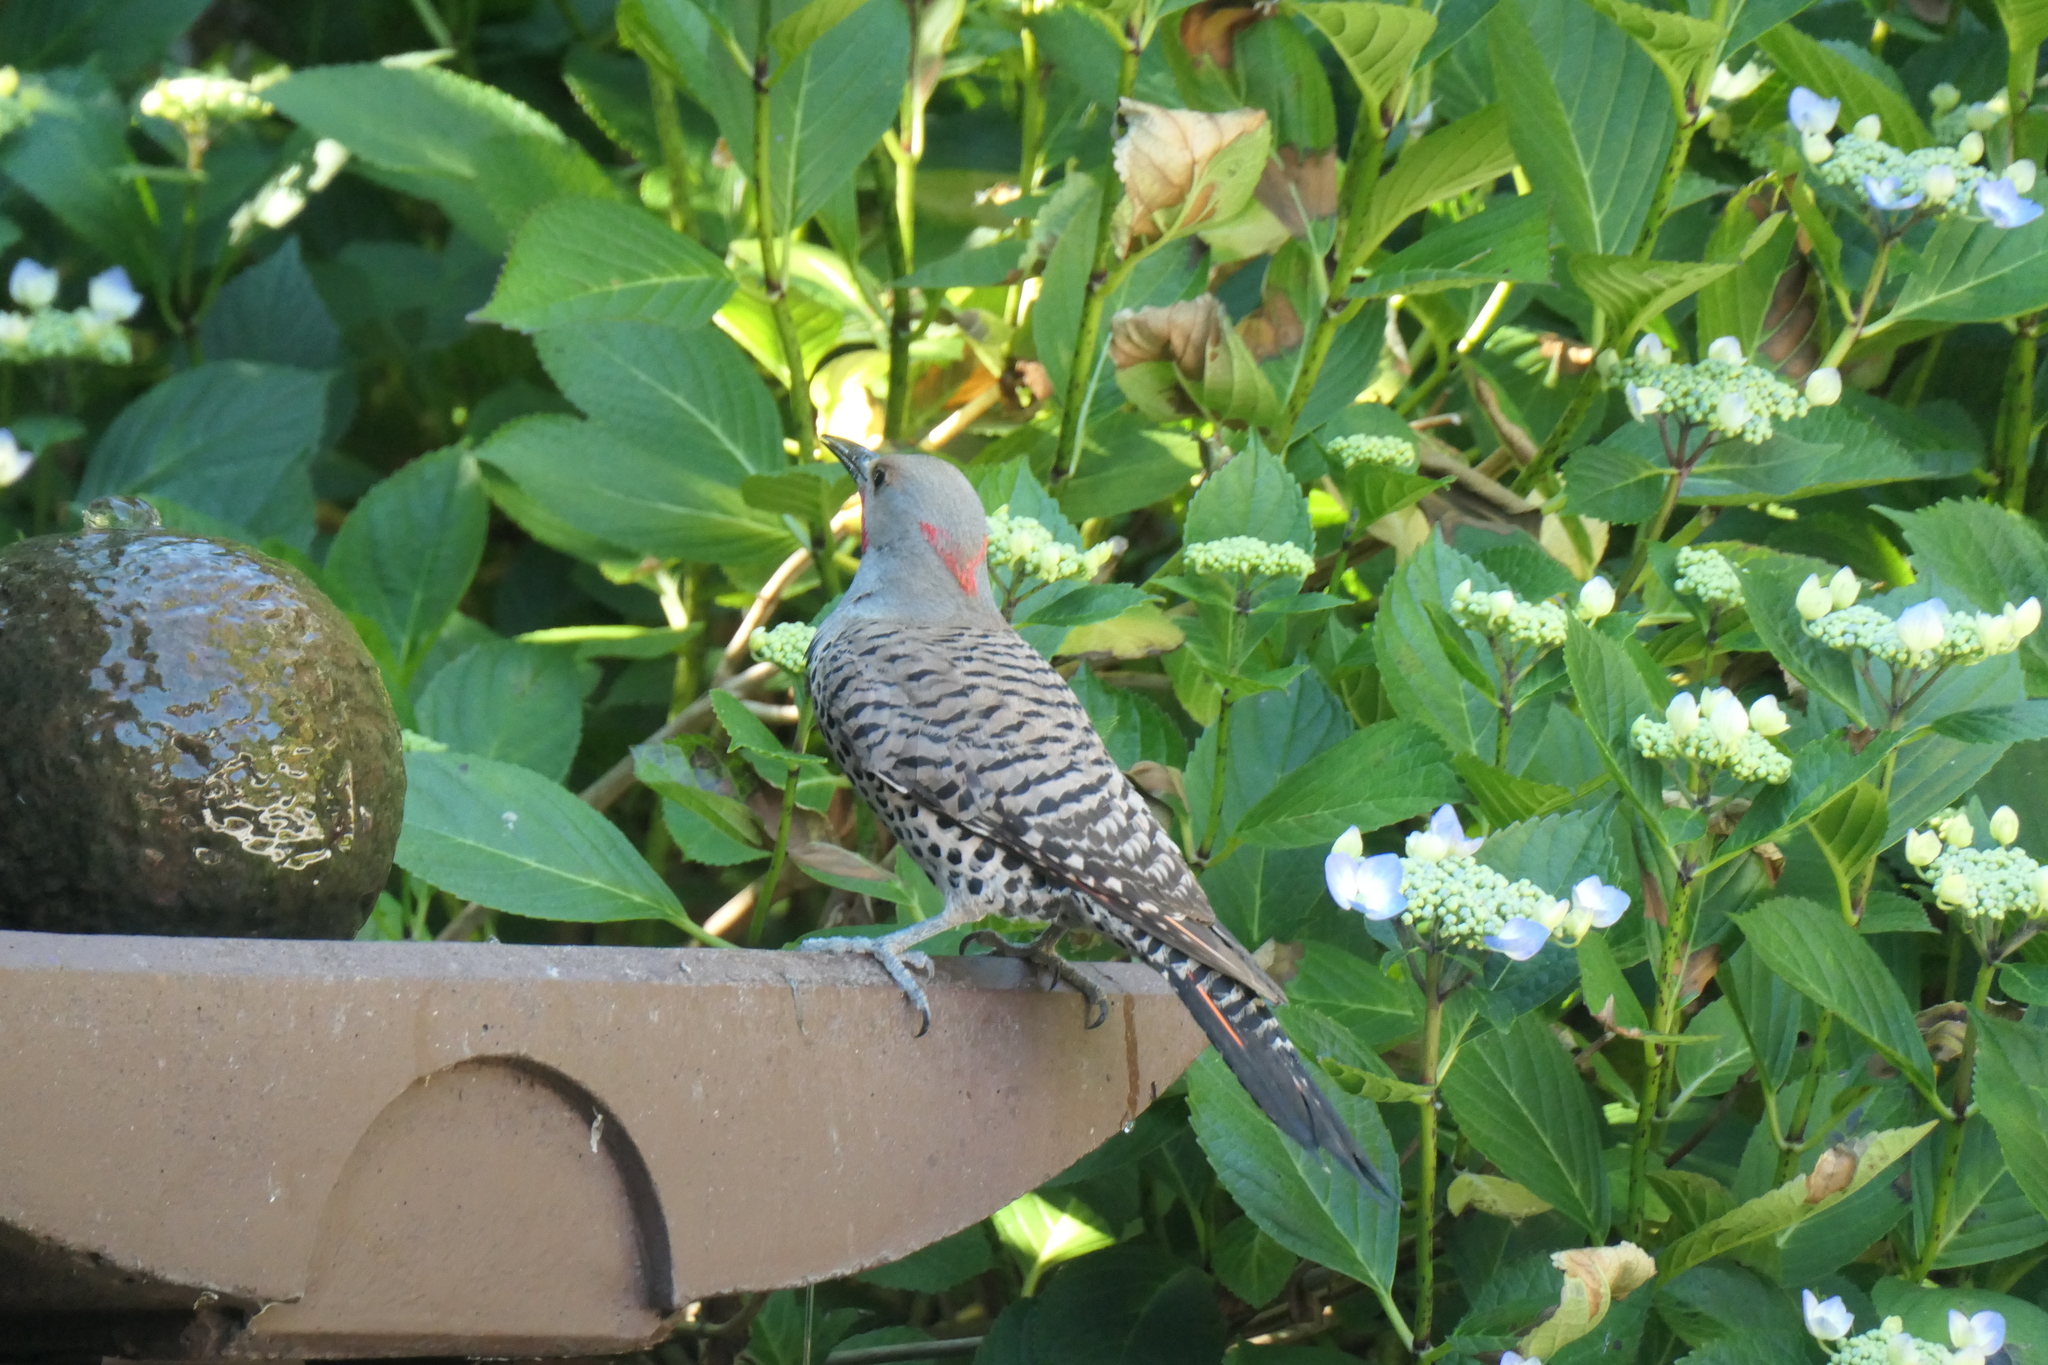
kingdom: Animalia
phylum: Chordata
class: Aves
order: Piciformes
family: Picidae
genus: Colaptes
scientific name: Colaptes
